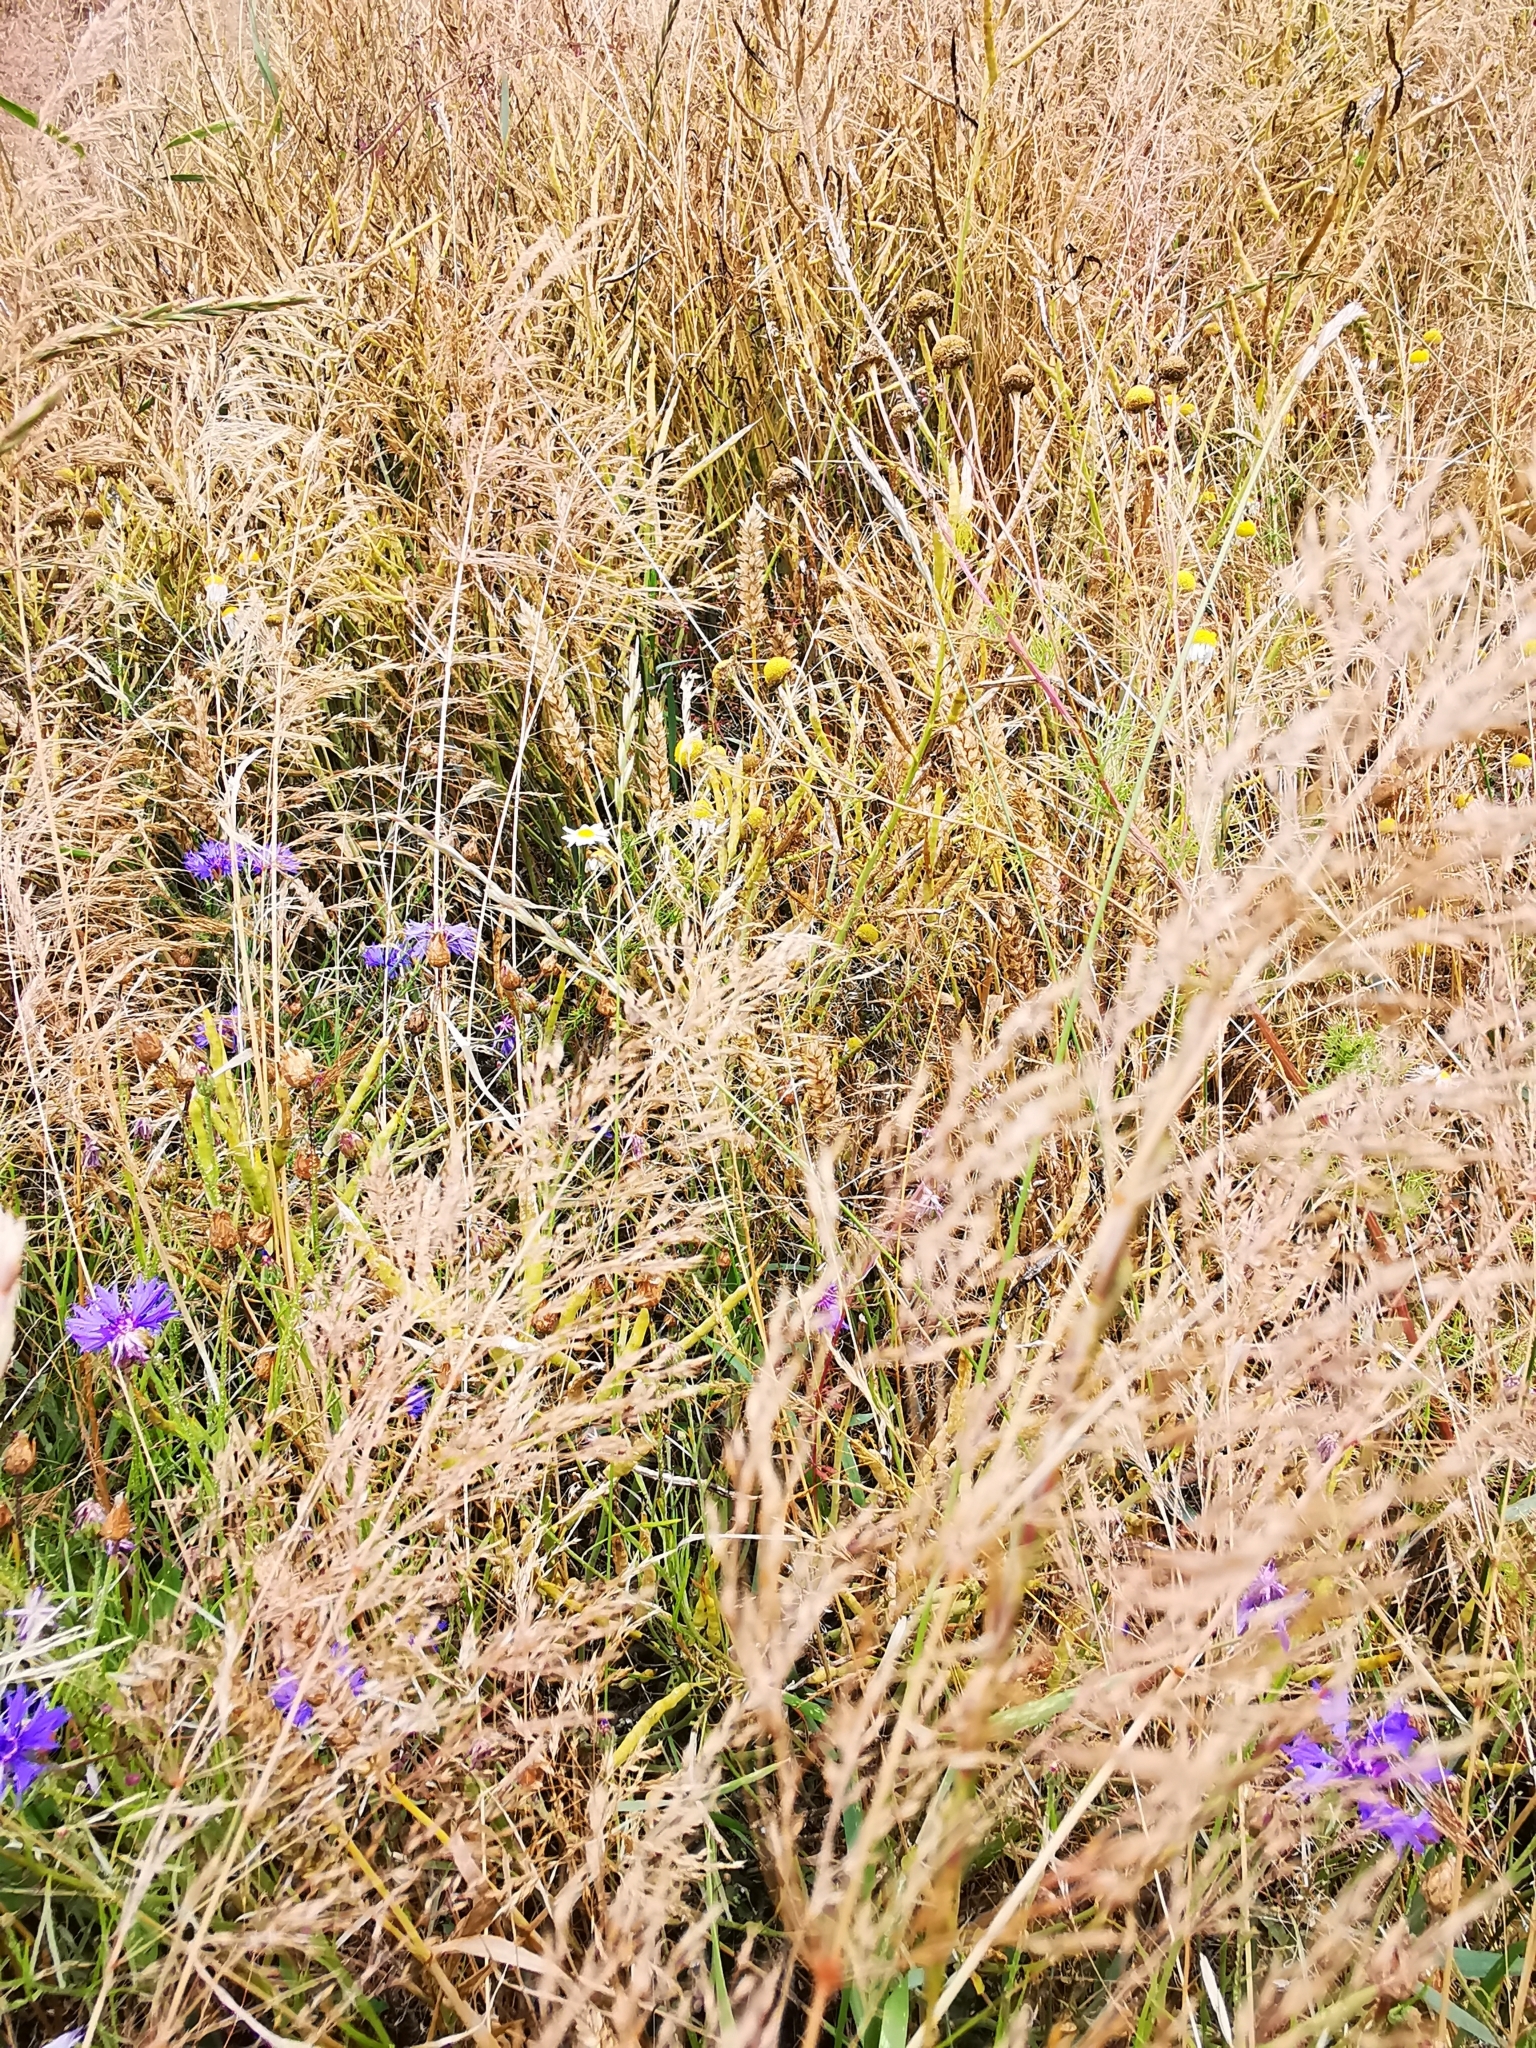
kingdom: Plantae
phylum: Tracheophyta
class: Liliopsida
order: Poales
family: Poaceae
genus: Apera
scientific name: Apera spica-venti
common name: Loose silky-bent
